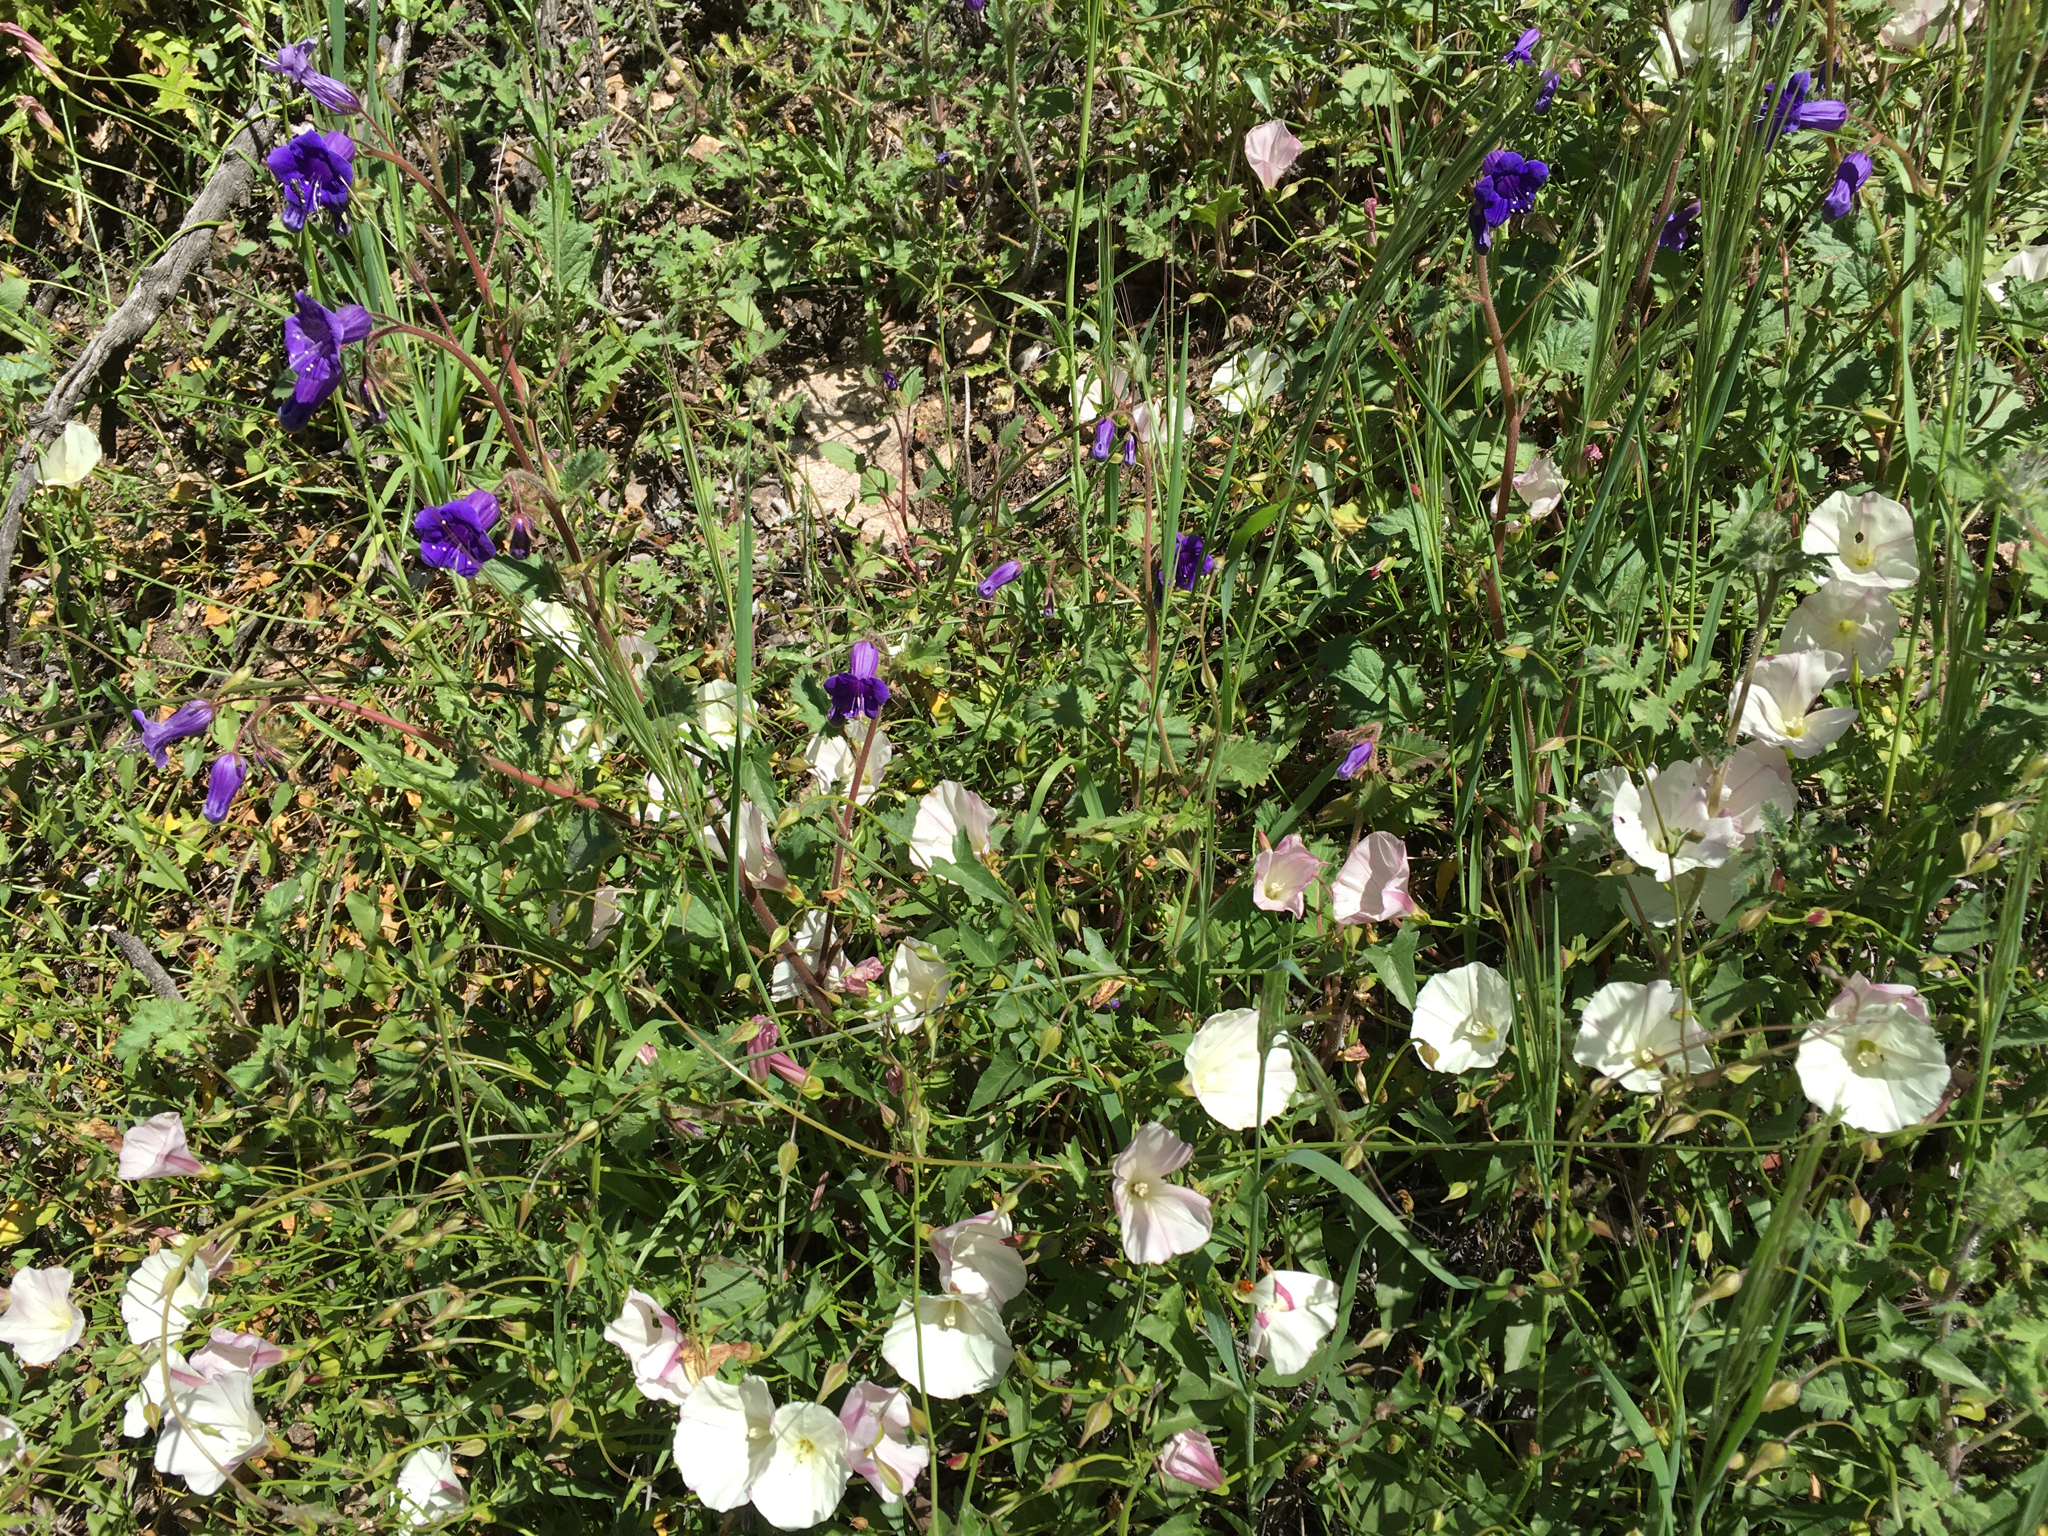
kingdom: Plantae
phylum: Tracheophyta
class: Magnoliopsida
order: Solanales
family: Convolvulaceae
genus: Calystegia
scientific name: Calystegia macrostegia
